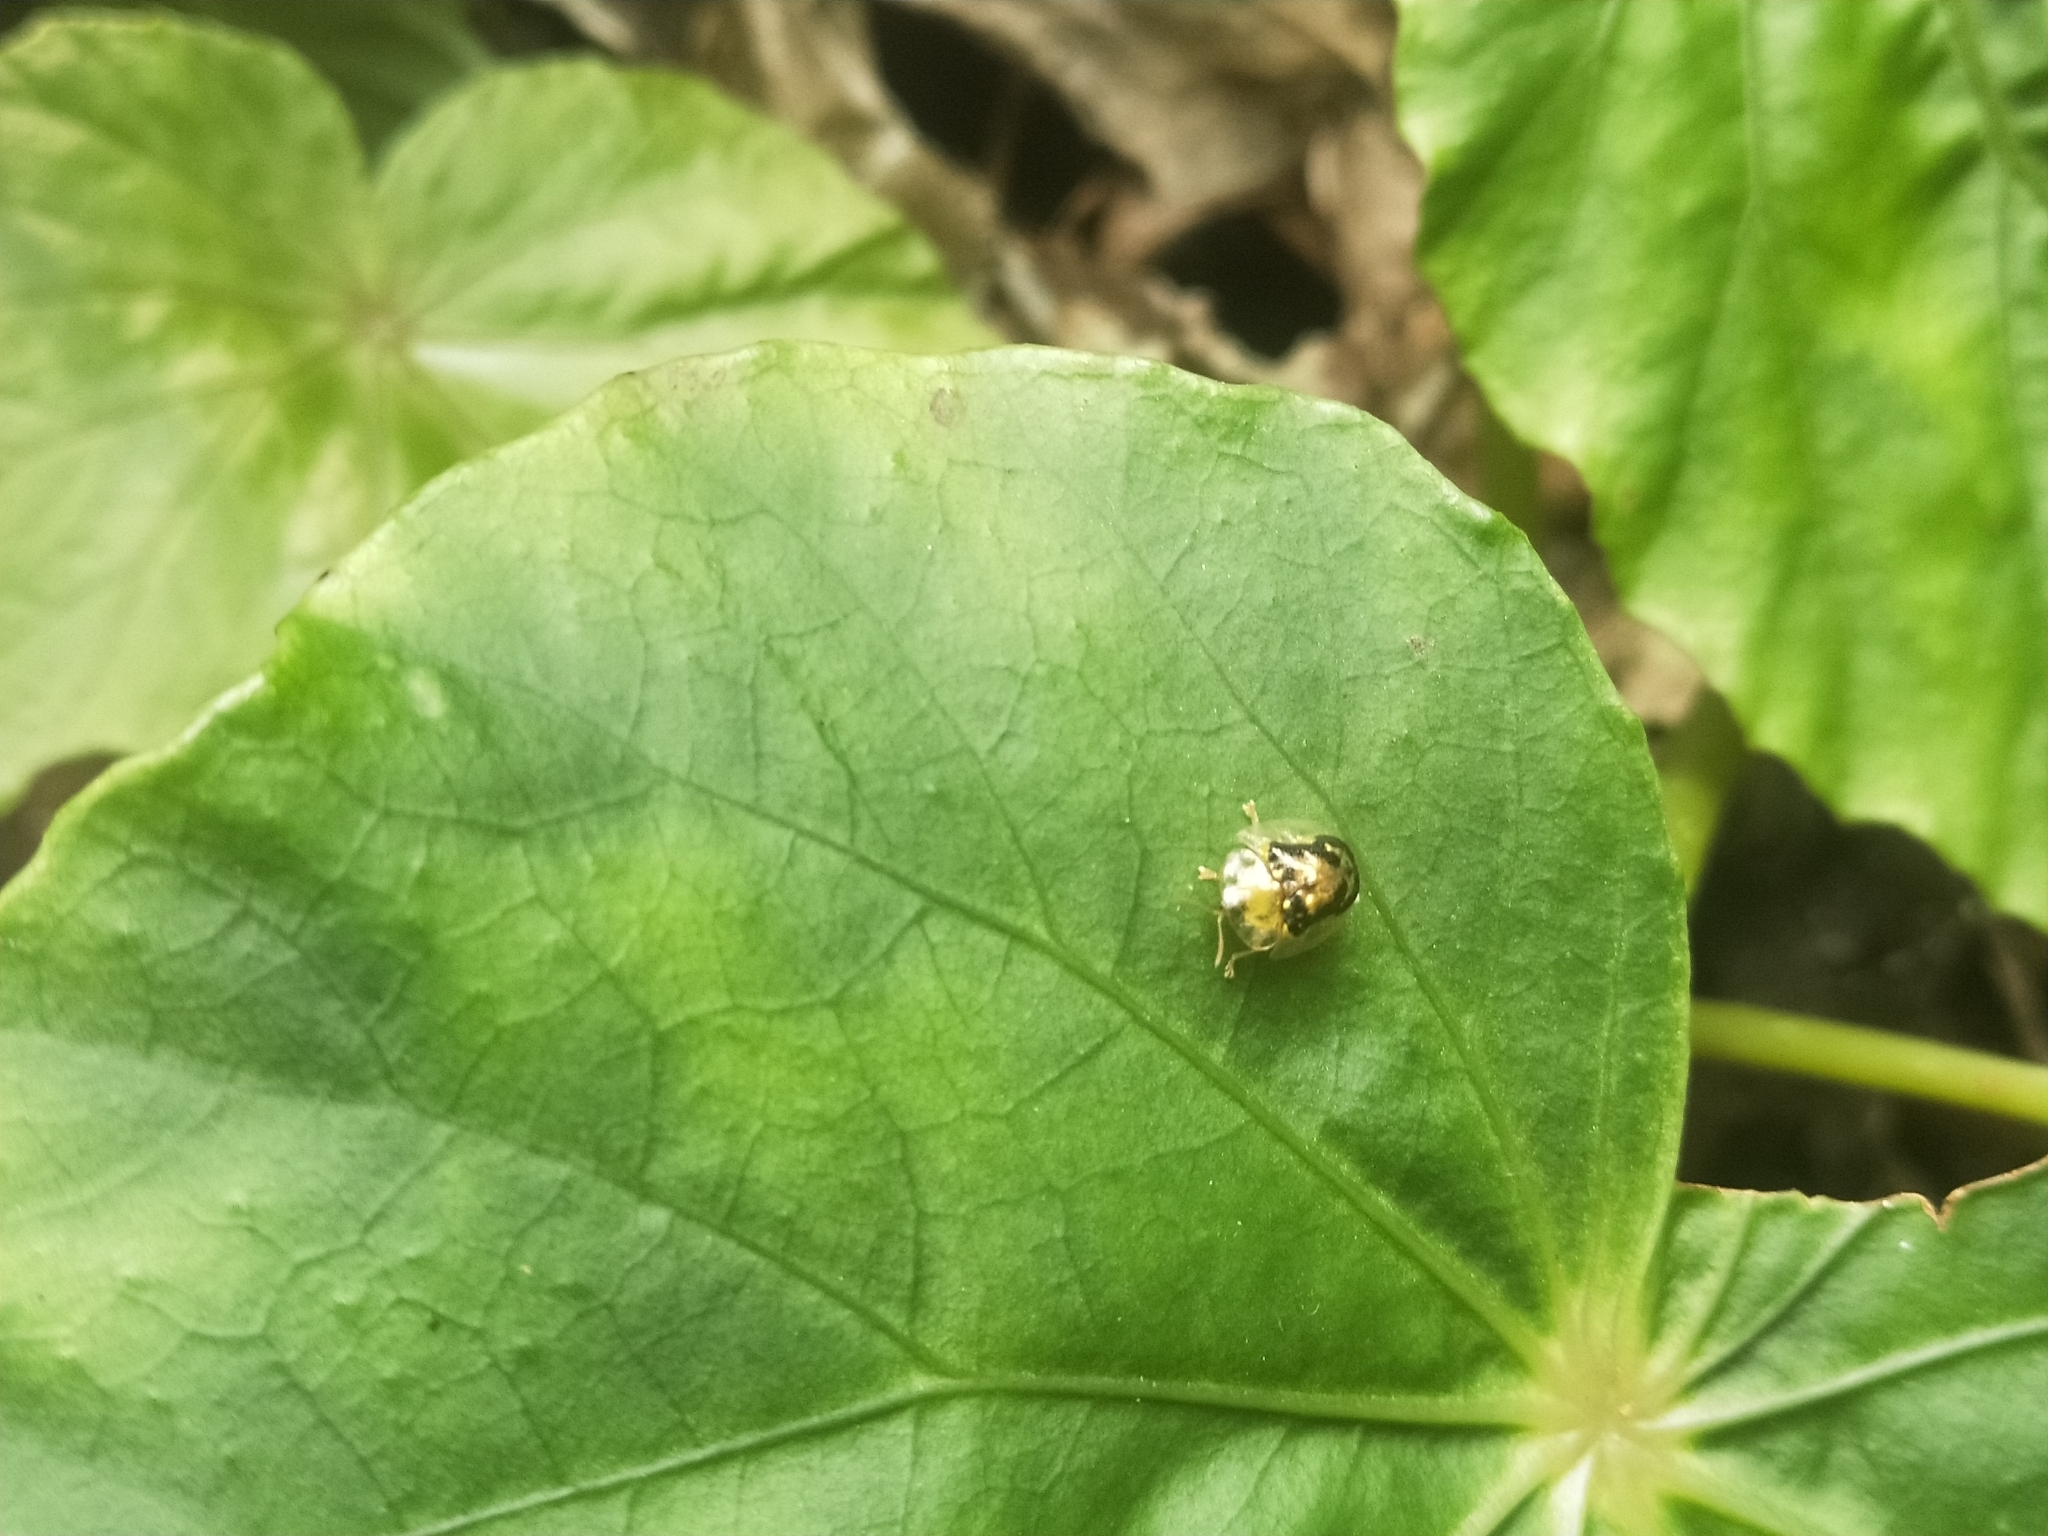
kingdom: Animalia
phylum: Arthropoda
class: Insecta
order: Coleoptera
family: Chrysomelidae
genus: Cassida
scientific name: Cassida sauteri
